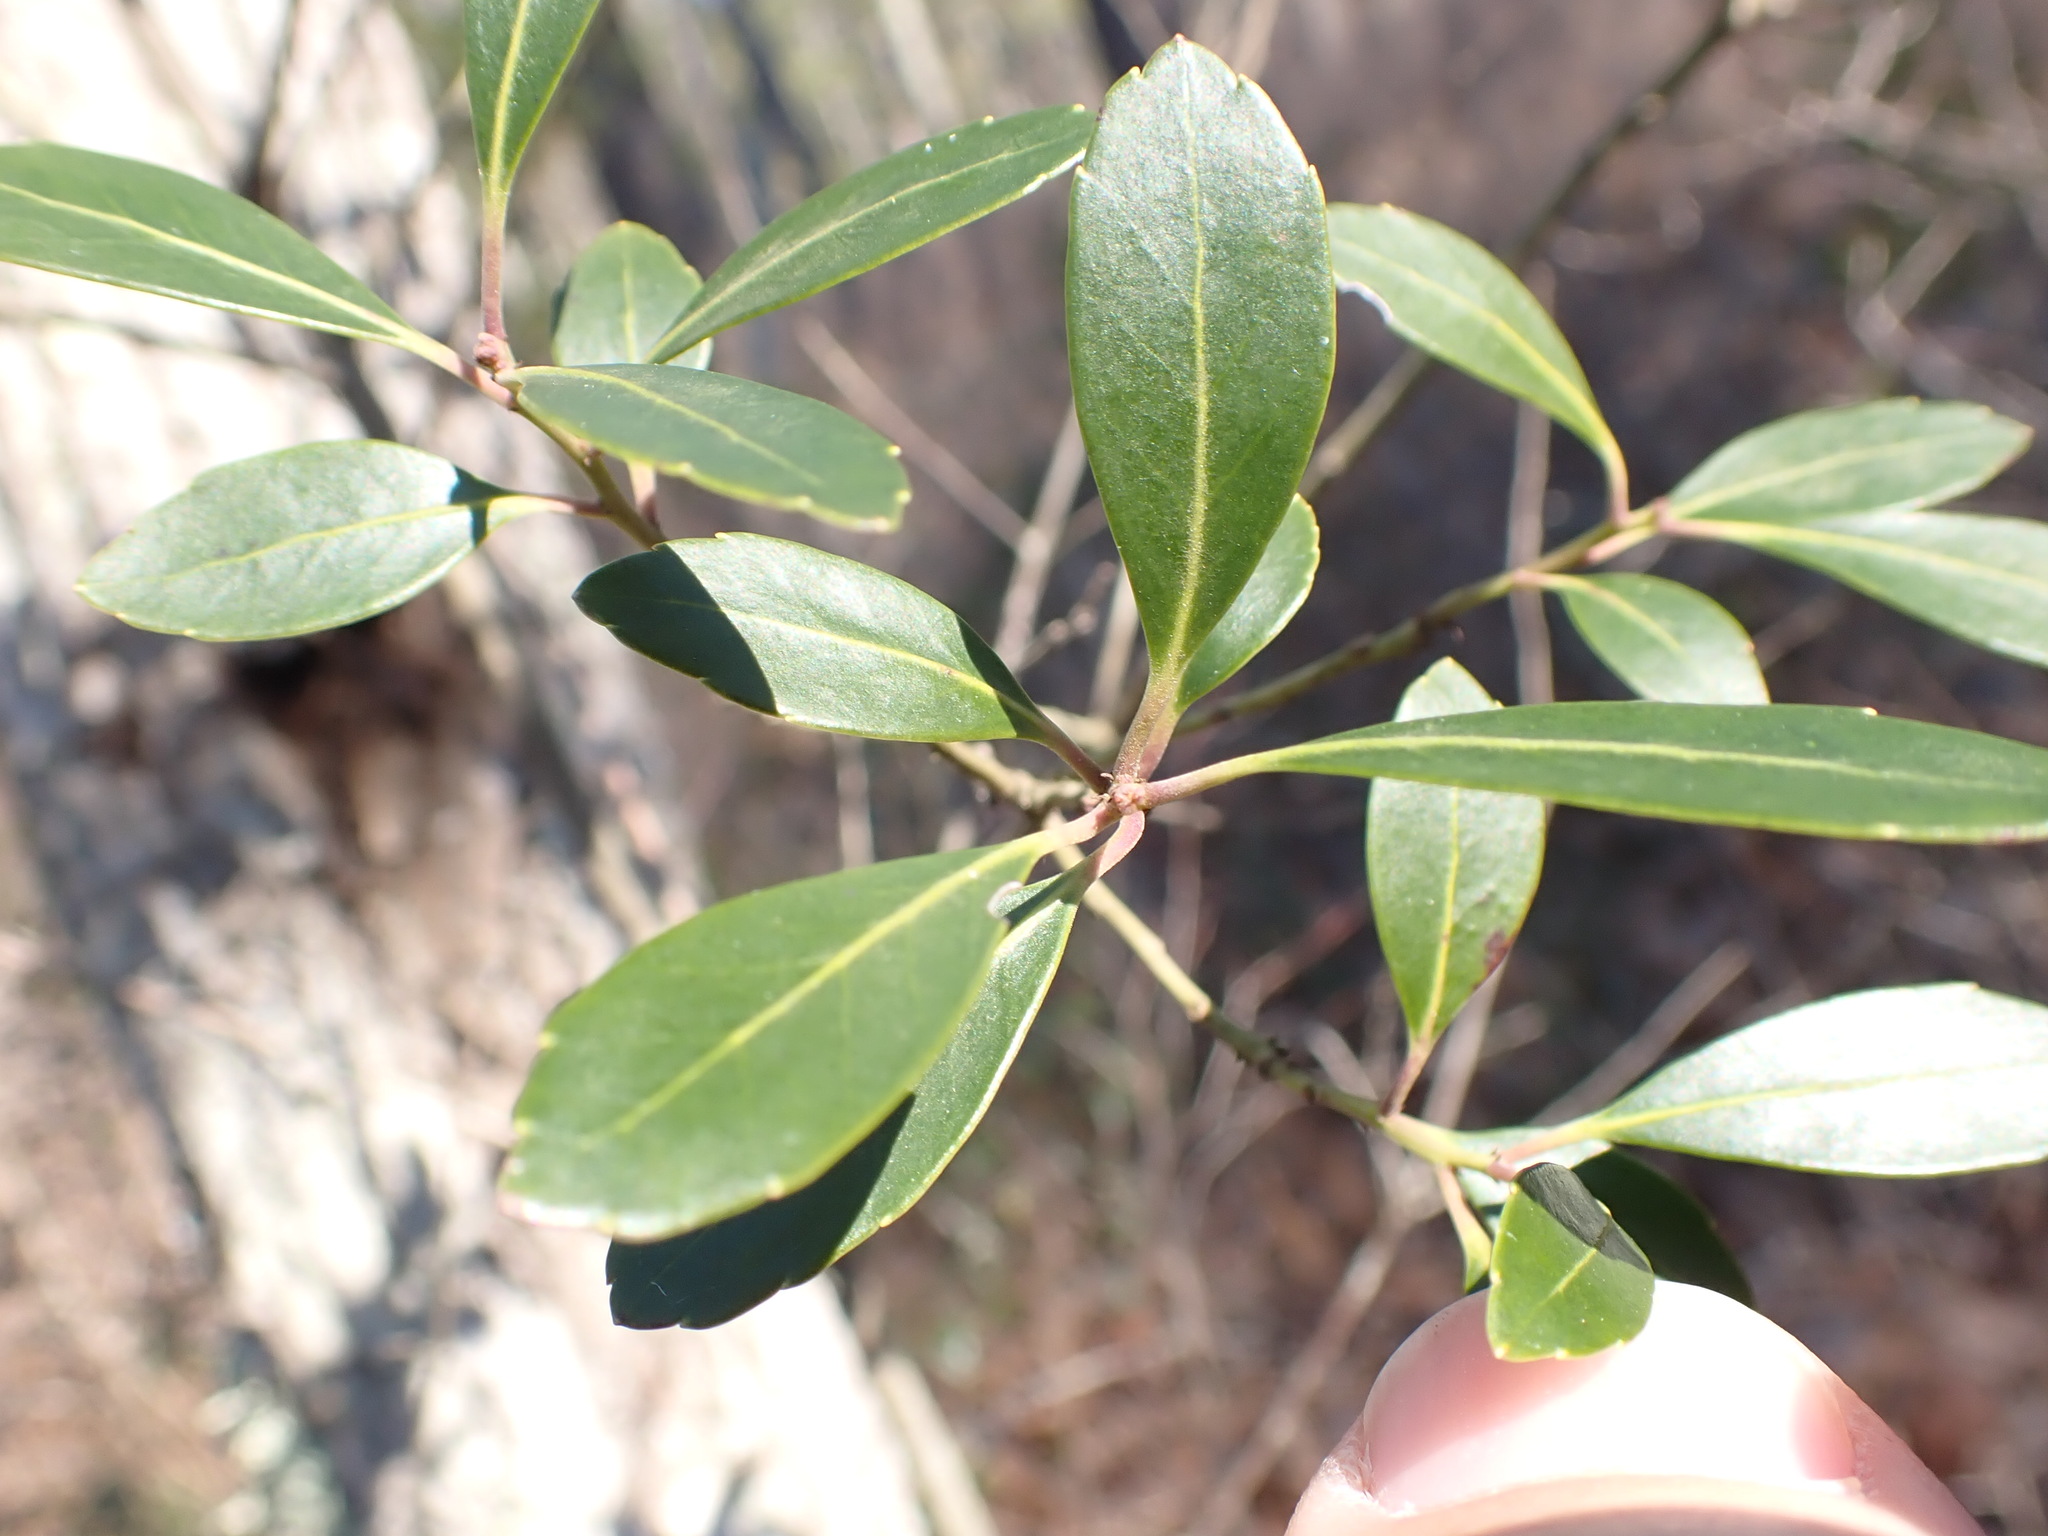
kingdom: Plantae
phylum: Tracheophyta
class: Magnoliopsida
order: Aquifoliales
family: Aquifoliaceae
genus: Ilex
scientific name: Ilex glabra
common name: Bitter gallberry
